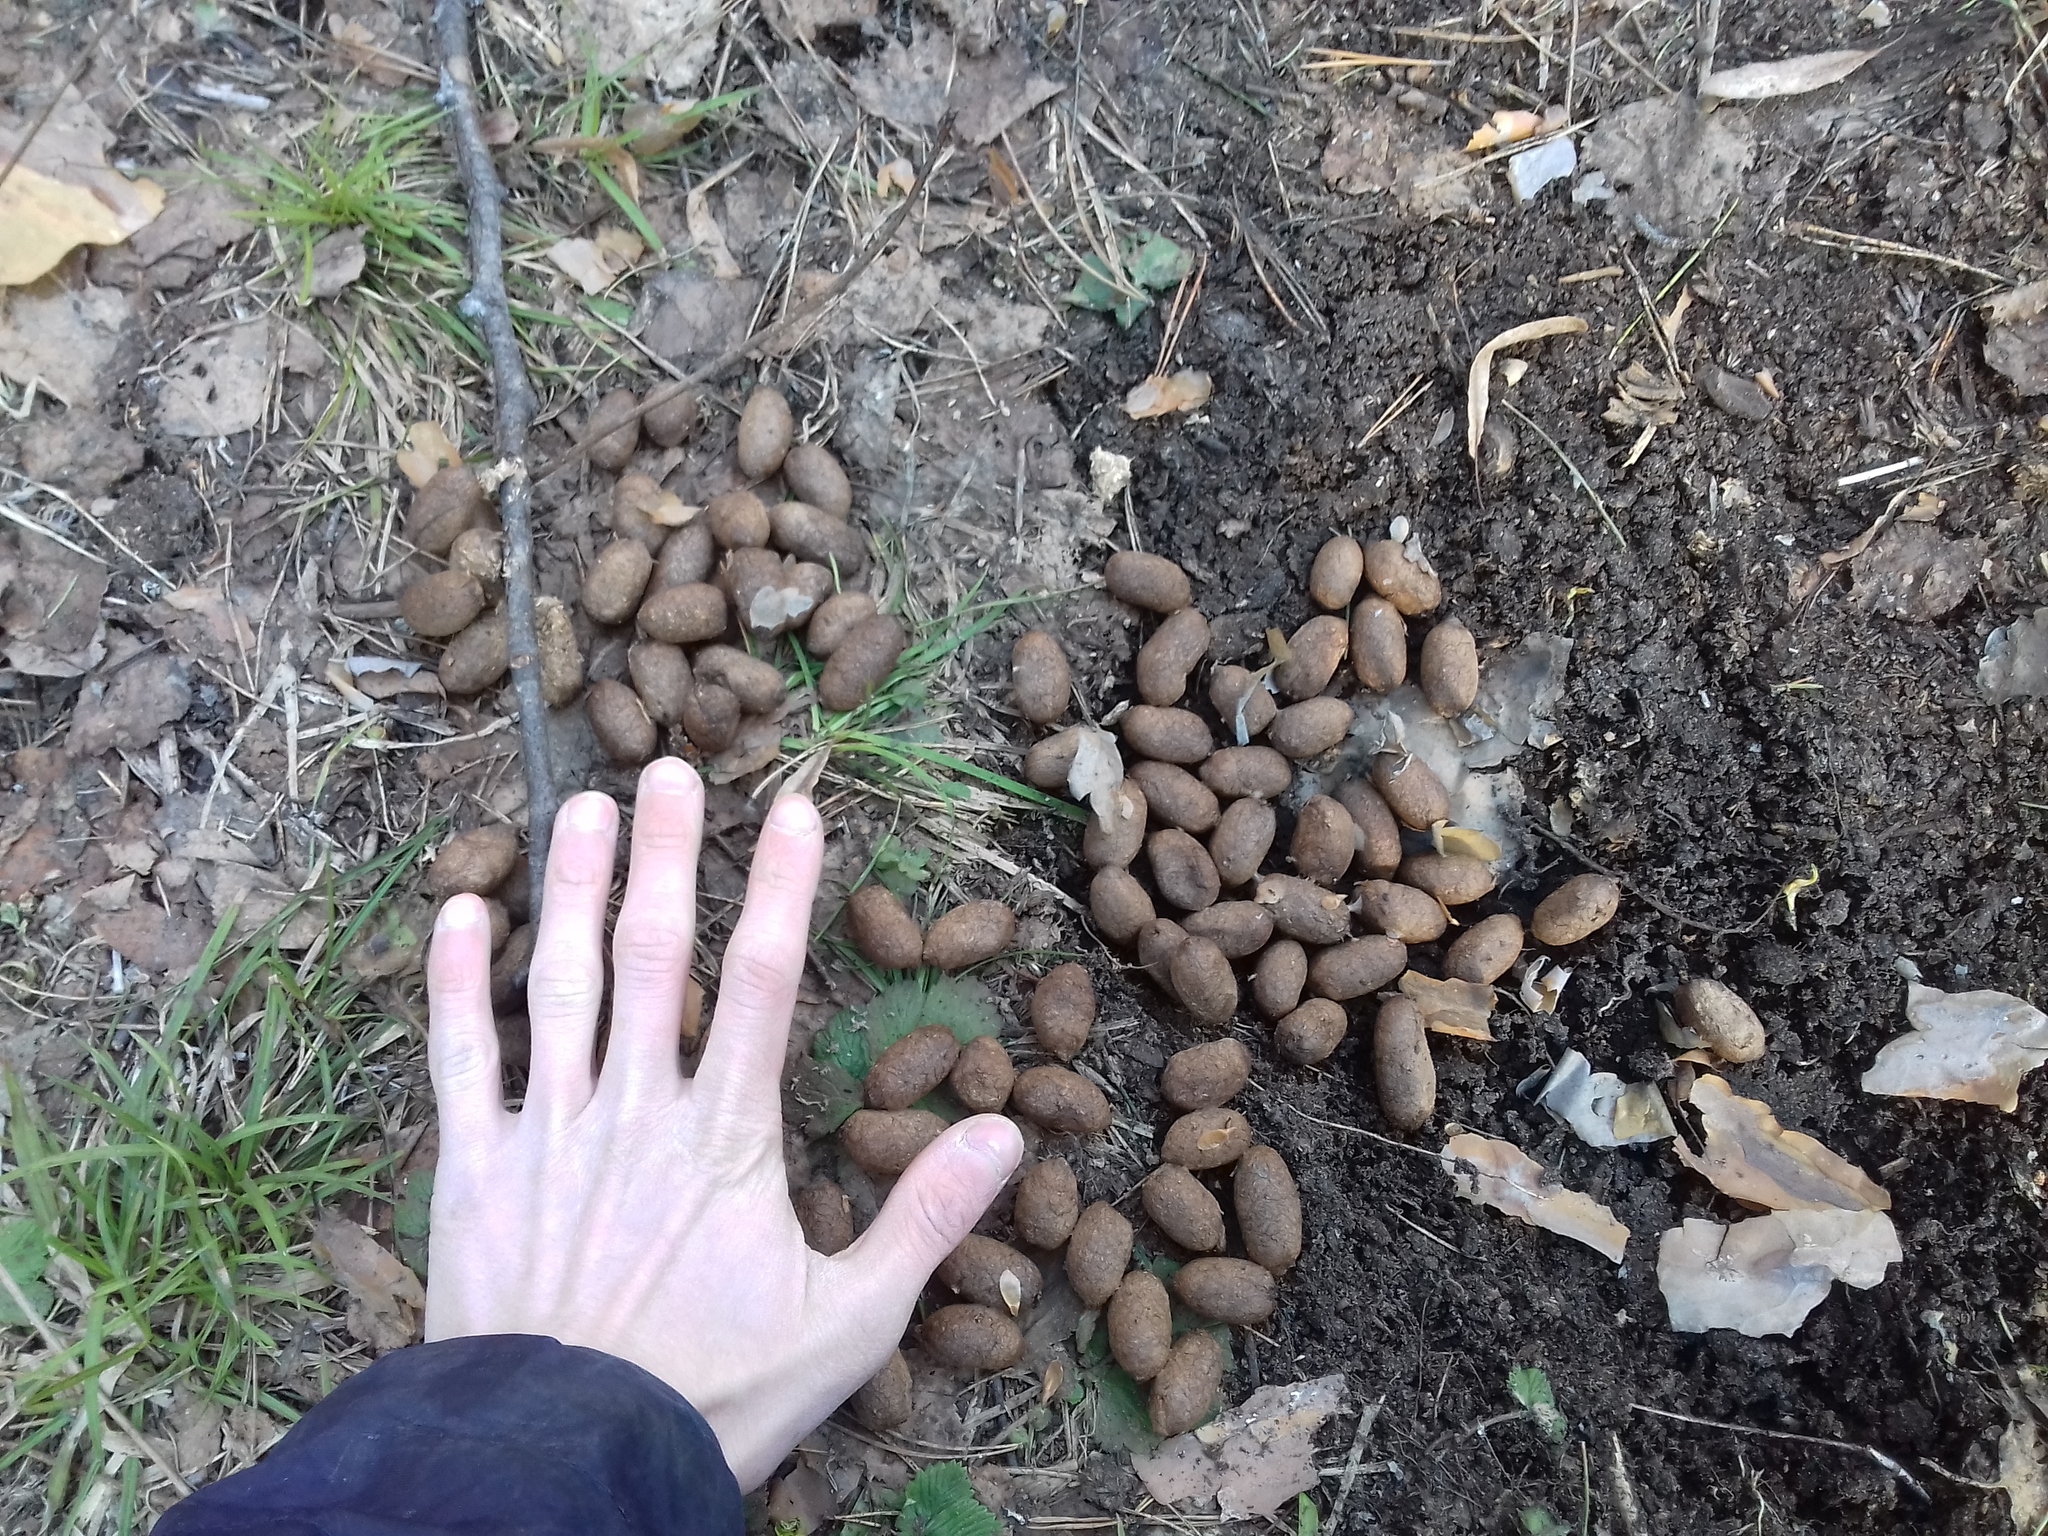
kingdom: Animalia
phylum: Chordata
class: Mammalia
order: Artiodactyla
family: Cervidae
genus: Alces
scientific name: Alces alces
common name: Moose
